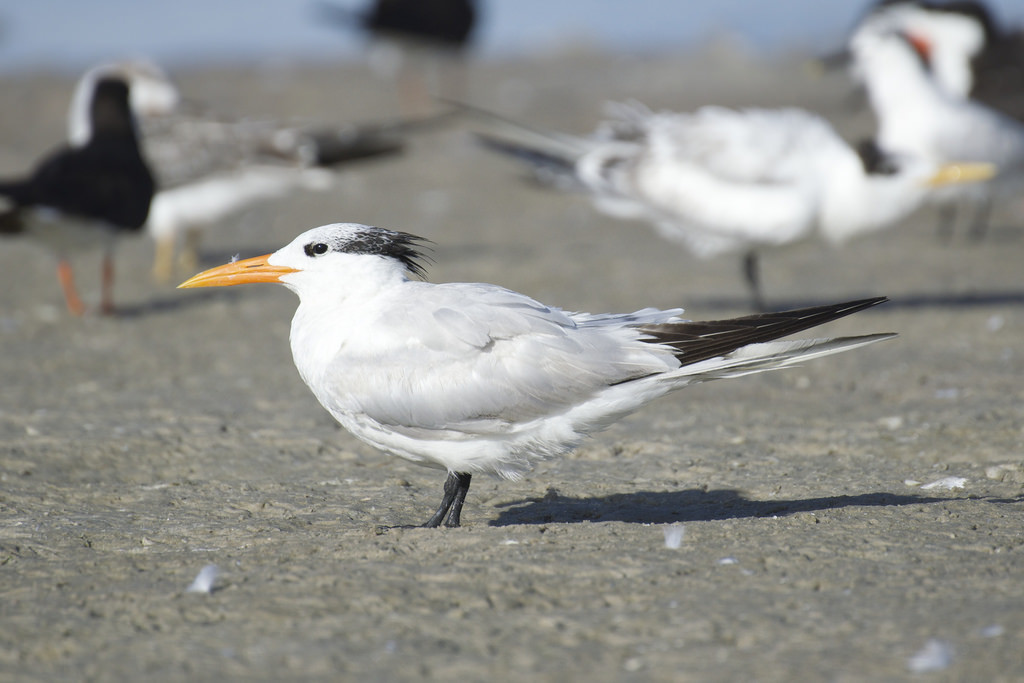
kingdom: Animalia
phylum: Chordata
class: Aves
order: Charadriiformes
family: Laridae
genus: Thalasseus
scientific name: Thalasseus maximus
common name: Royal tern
